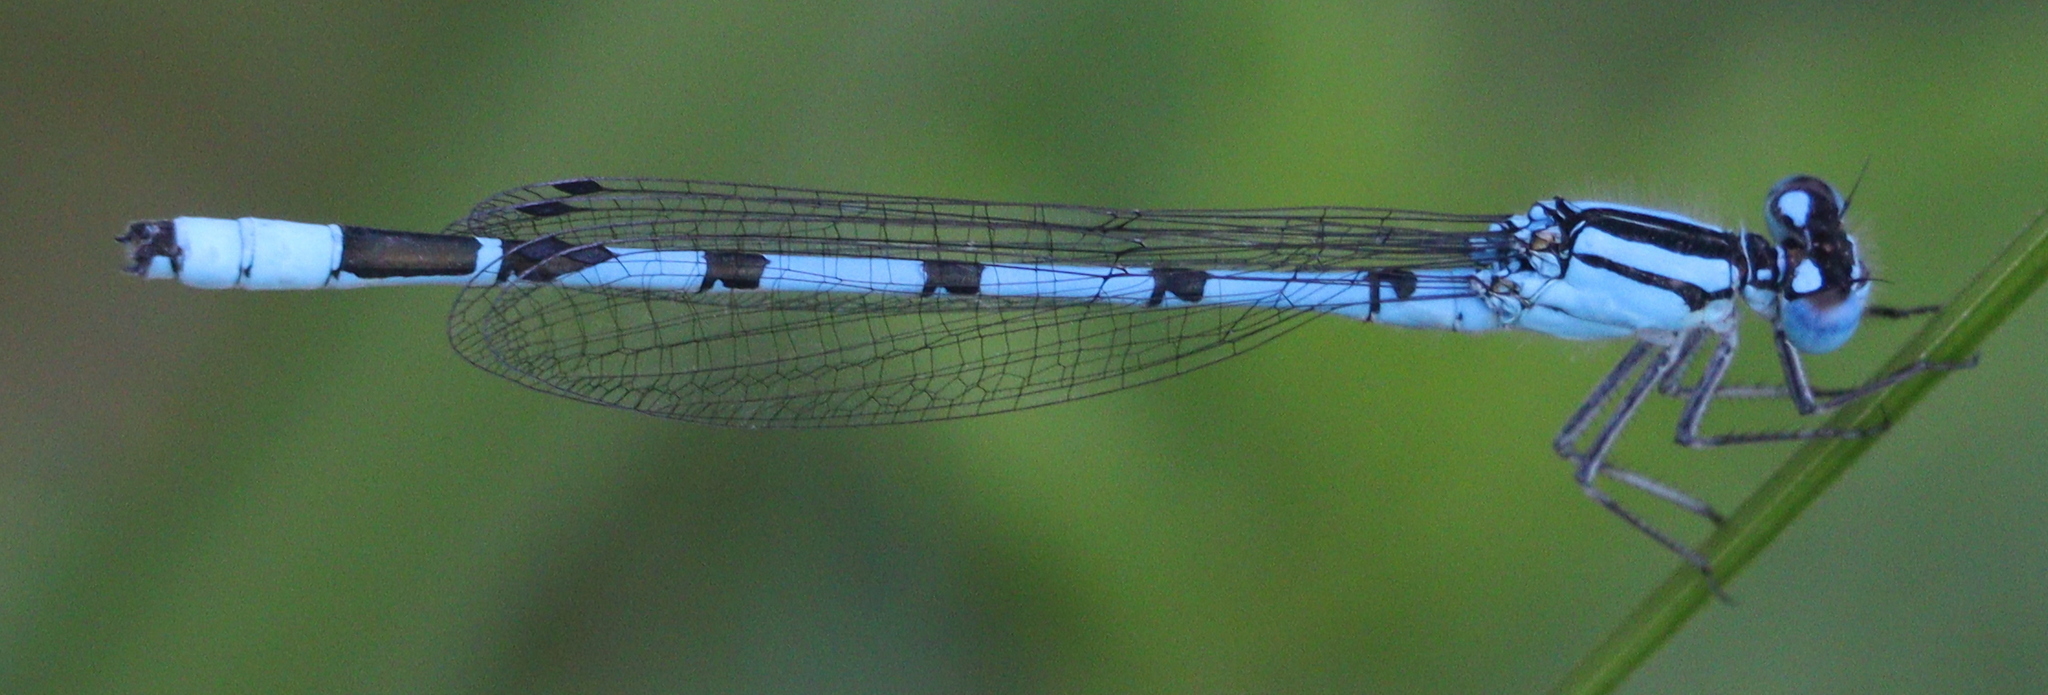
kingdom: Animalia
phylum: Arthropoda
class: Insecta
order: Odonata
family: Coenagrionidae
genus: Enallagma
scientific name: Enallagma cyathigerum
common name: Common blue damselfly
